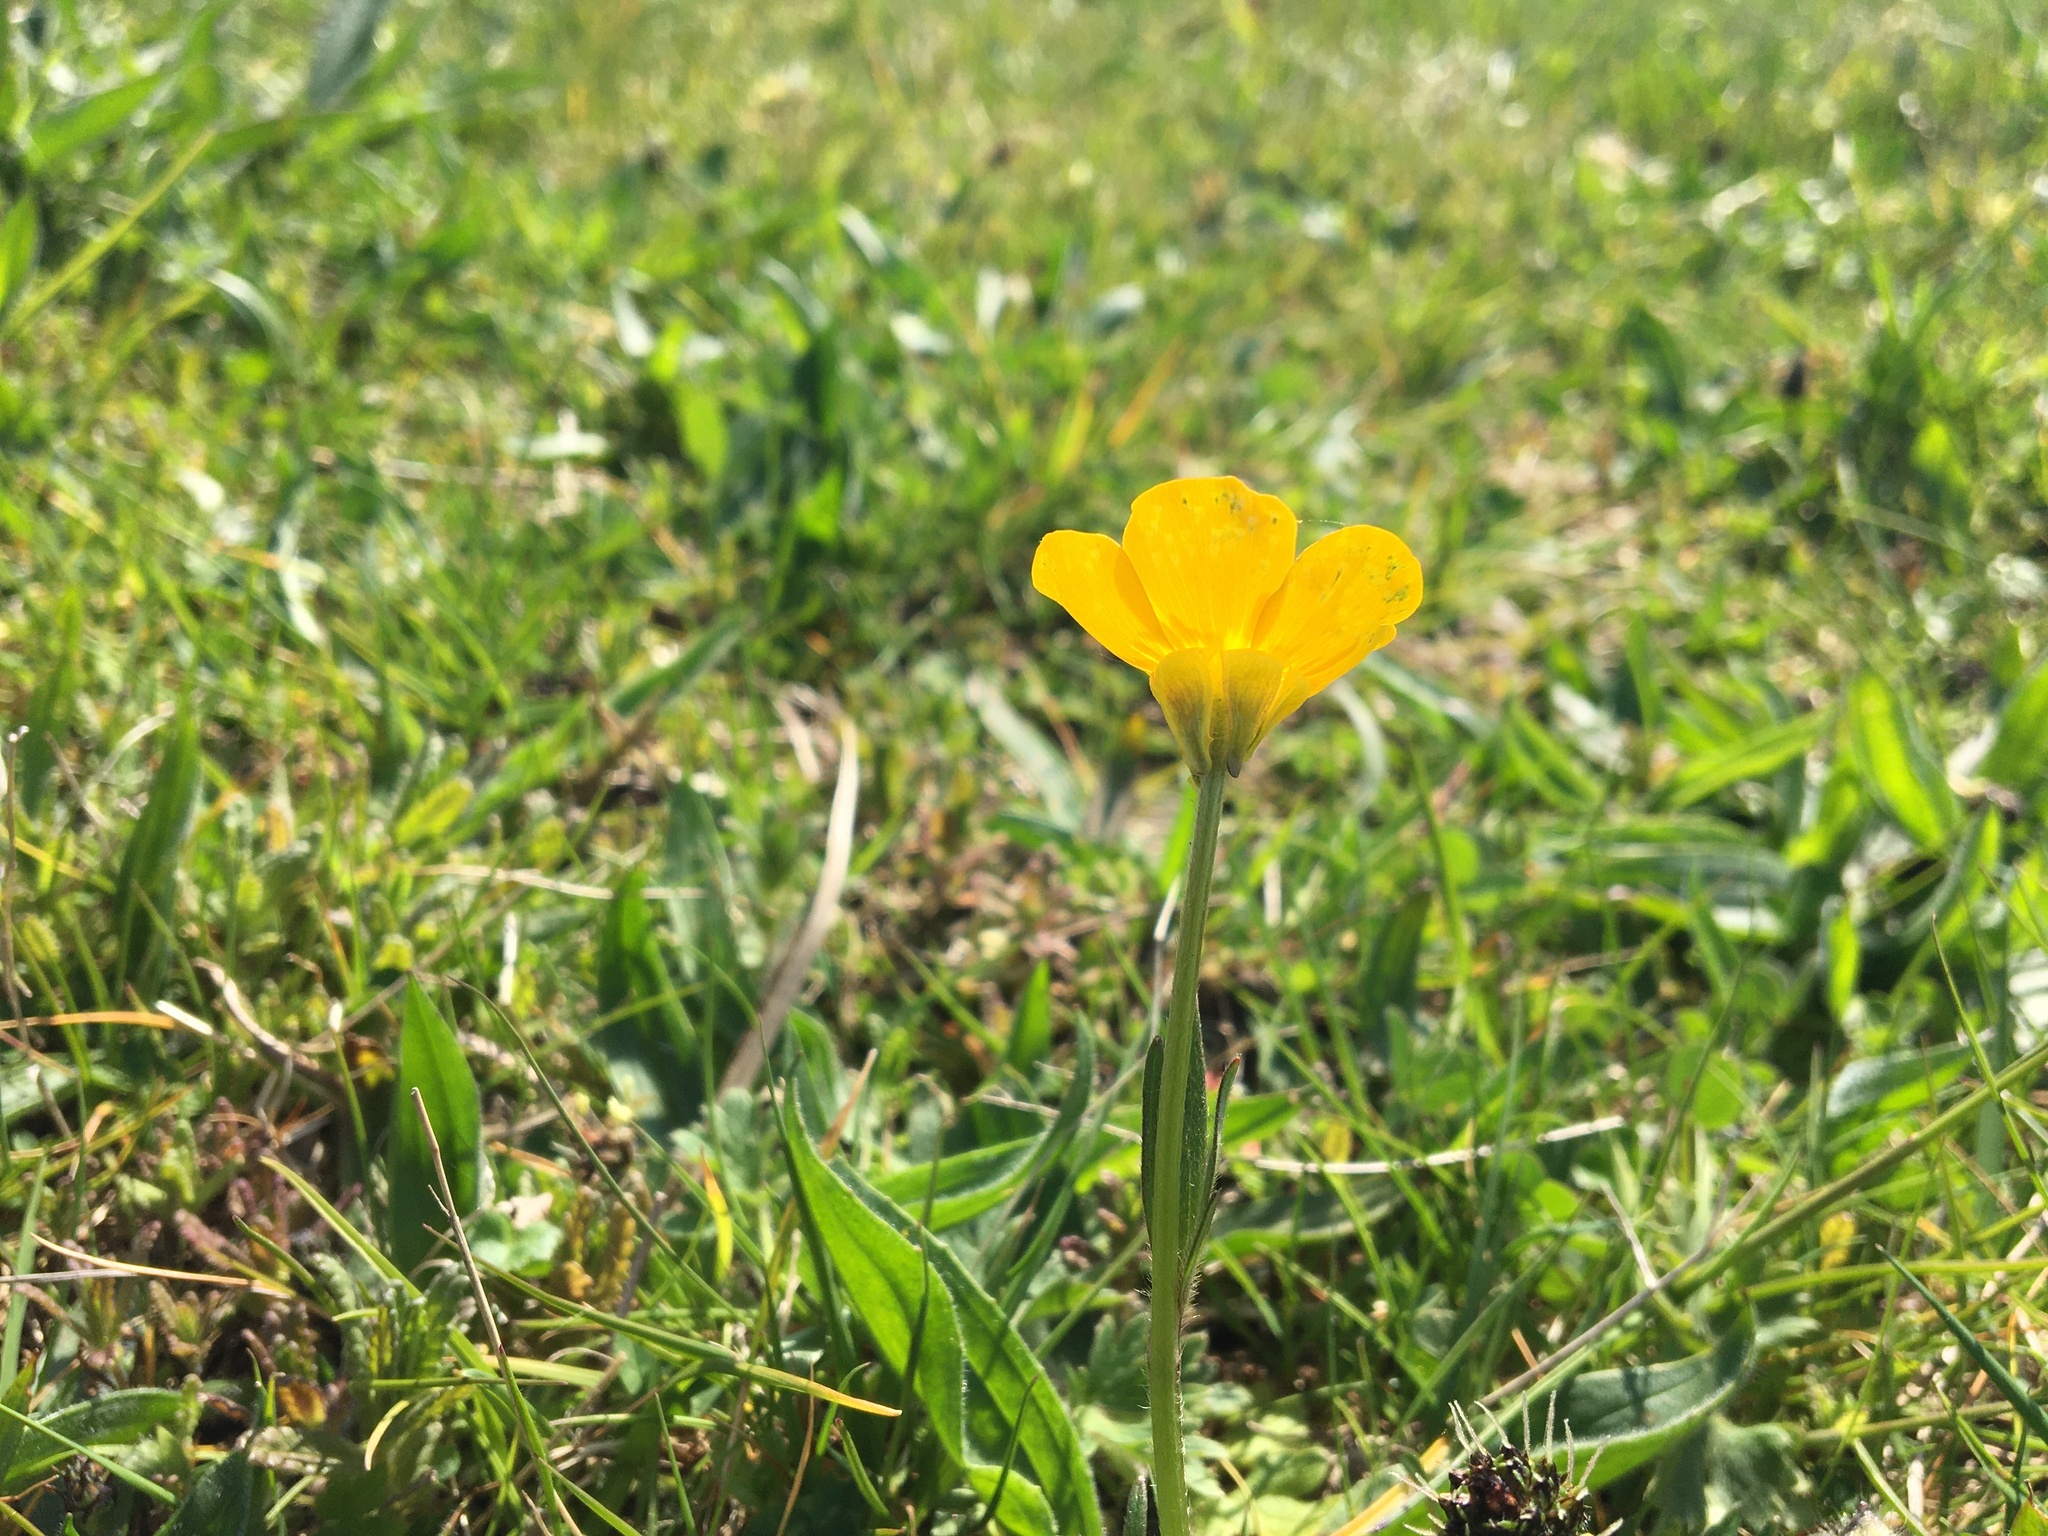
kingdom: Plantae
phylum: Tracheophyta
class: Magnoliopsida
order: Ranunculales
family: Ranunculaceae
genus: Ranunculus
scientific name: Ranunculus bulbosus
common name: Bulbous buttercup
